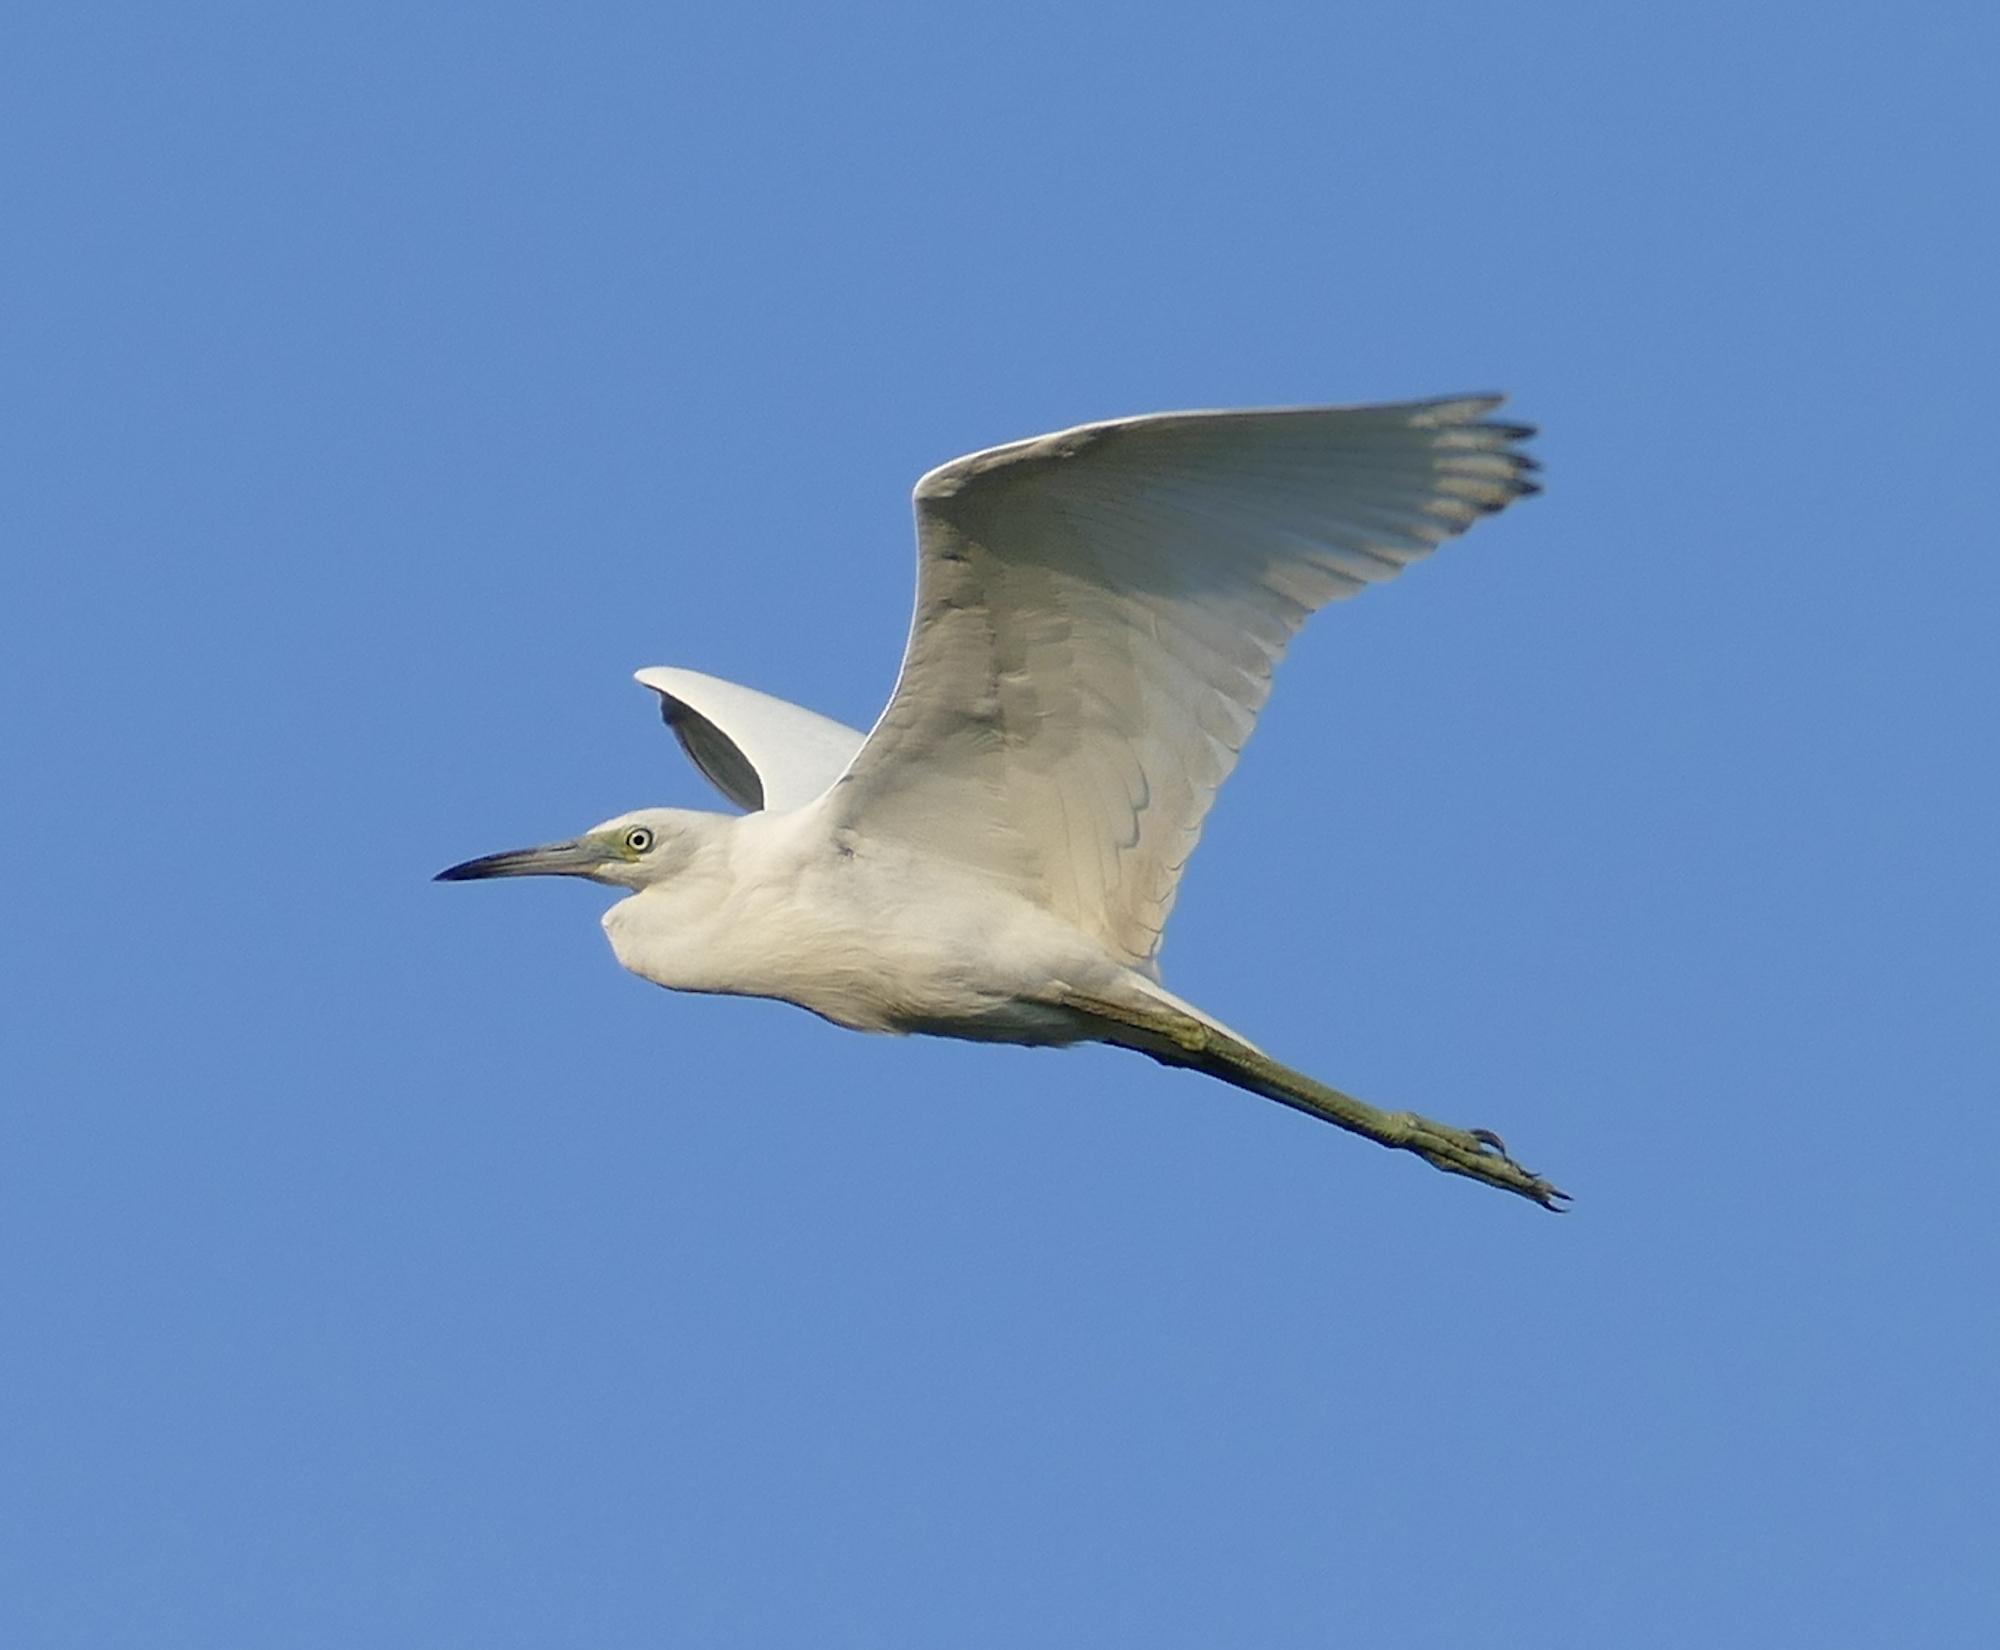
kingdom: Animalia
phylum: Chordata
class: Aves
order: Pelecaniformes
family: Ardeidae
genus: Egretta
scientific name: Egretta caerulea
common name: Little blue heron
